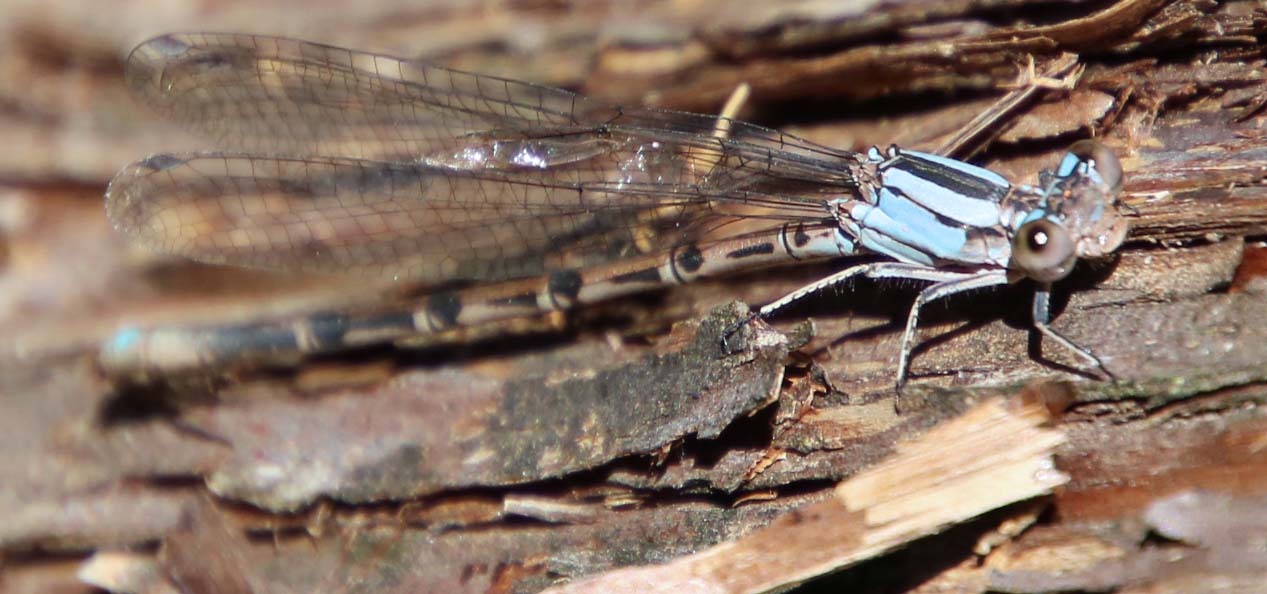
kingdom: Animalia
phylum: Arthropoda
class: Insecta
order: Odonata
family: Coenagrionidae
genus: Argia
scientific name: Argia funebris
